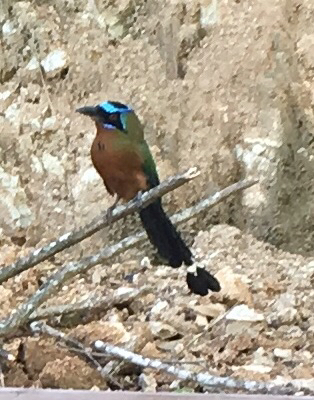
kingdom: Animalia
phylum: Chordata
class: Aves
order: Coraciiformes
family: Momotidae
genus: Momotus
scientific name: Momotus bahamensis
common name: Trinidad motmot
